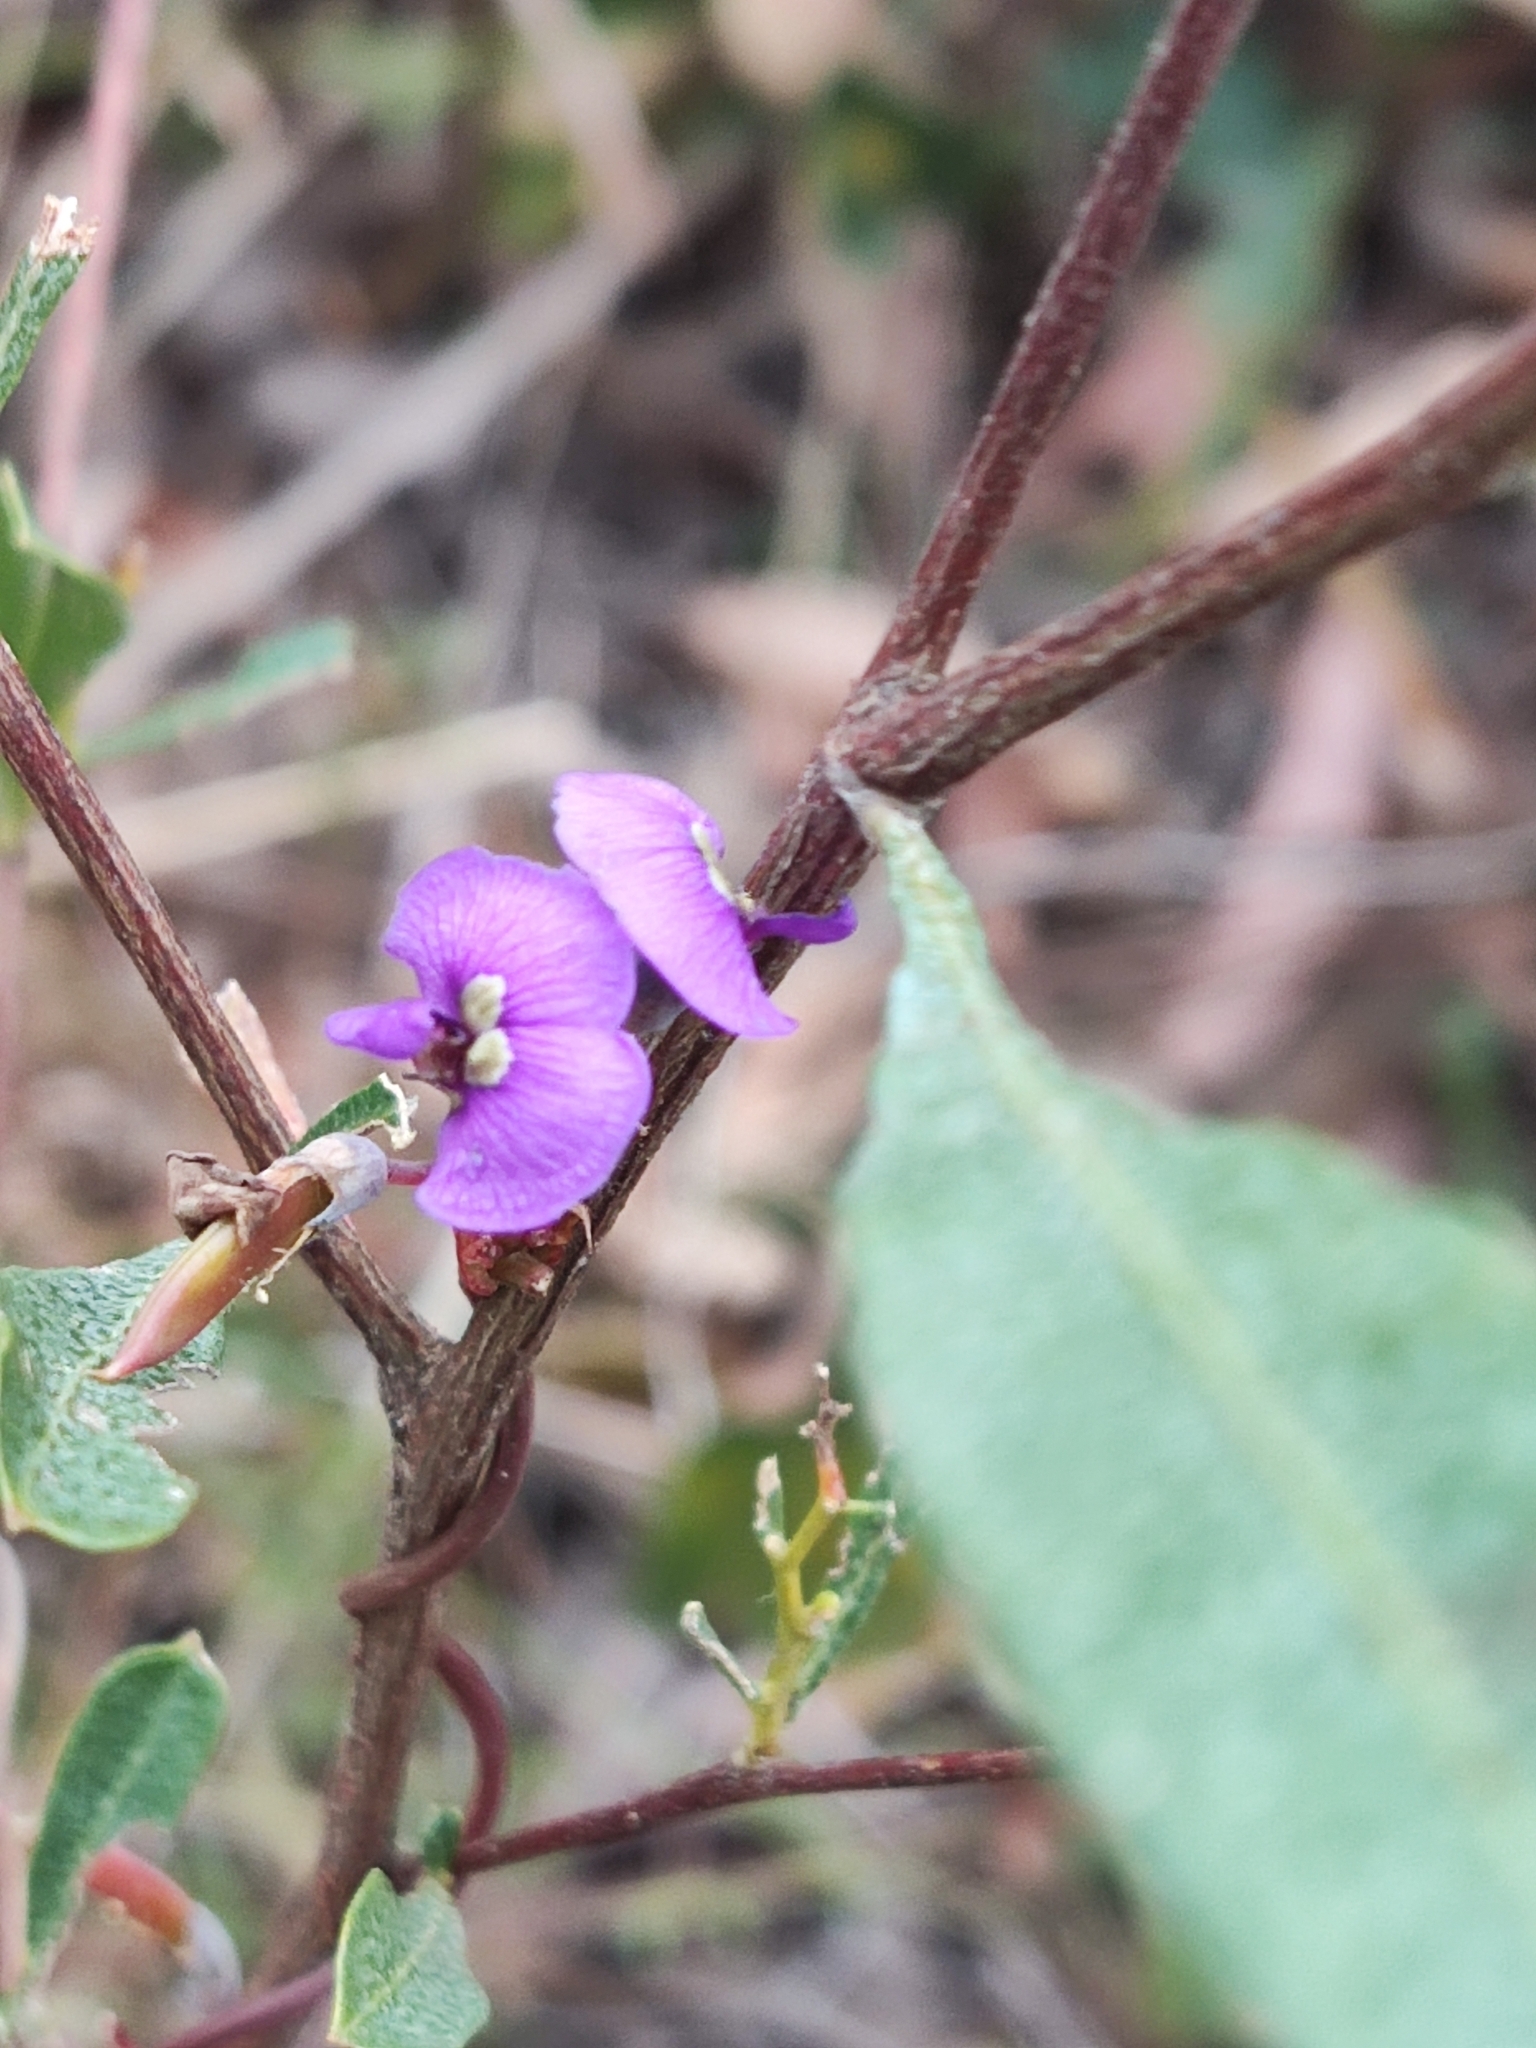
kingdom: Plantae
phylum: Tracheophyta
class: Magnoliopsida
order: Fabales
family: Fabaceae
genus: Hardenbergia
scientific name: Hardenbergia violacea
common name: Coral-pea
